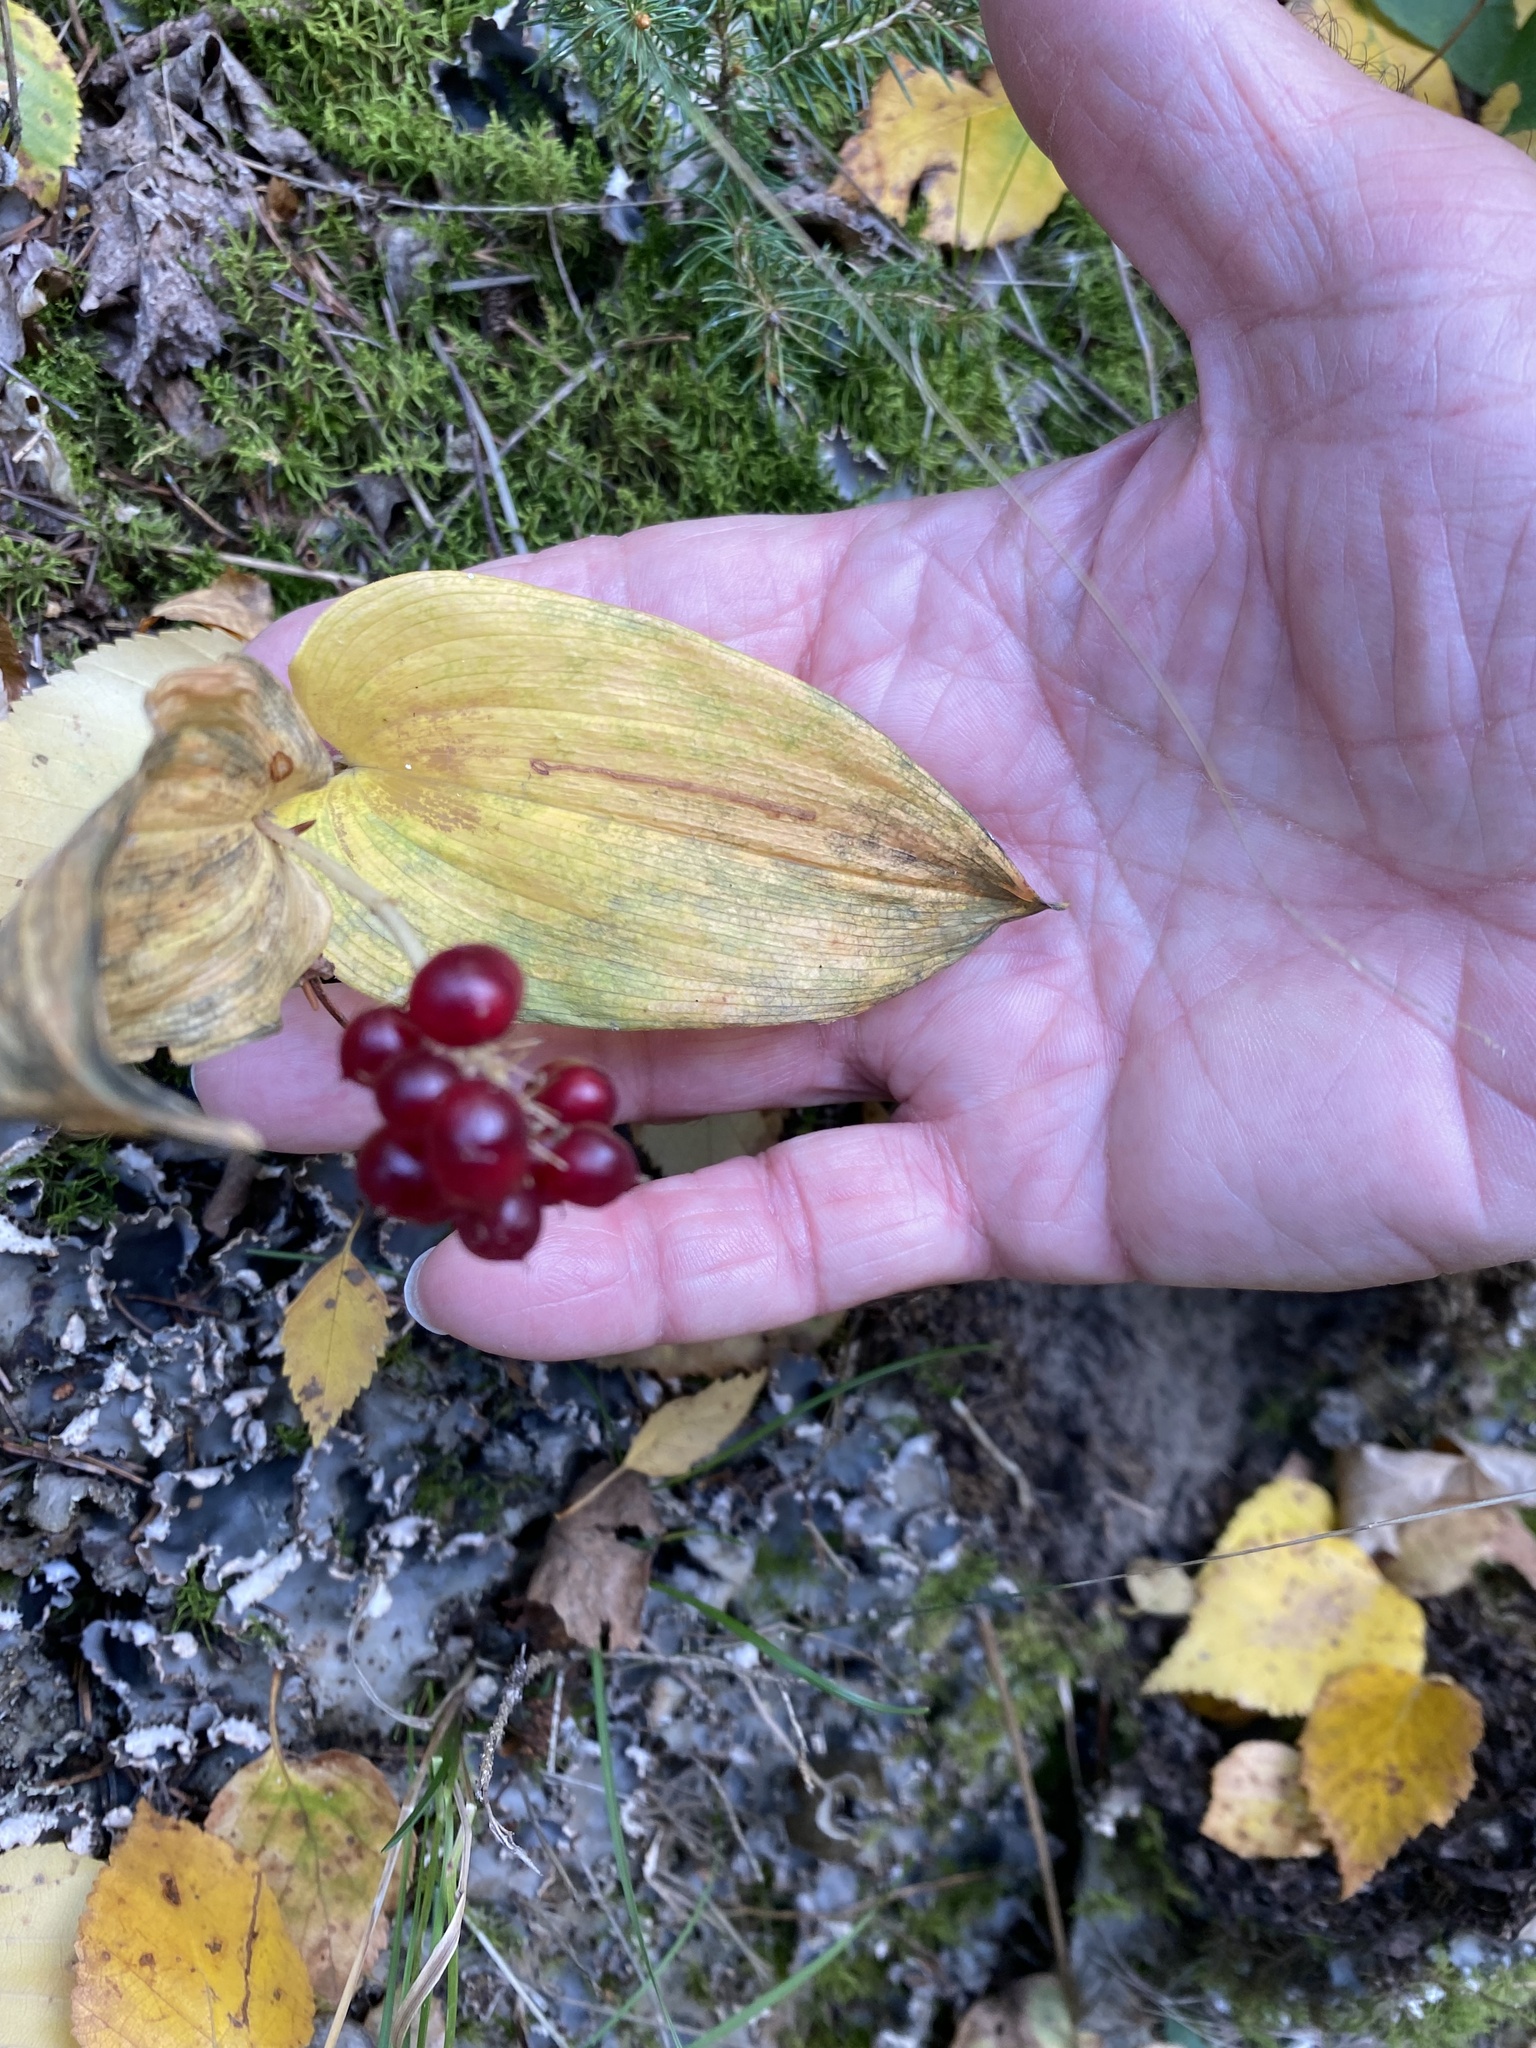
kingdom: Plantae
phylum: Tracheophyta
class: Liliopsida
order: Asparagales
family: Asparagaceae
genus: Maianthemum
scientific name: Maianthemum canadense
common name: False lily-of-the-valley
